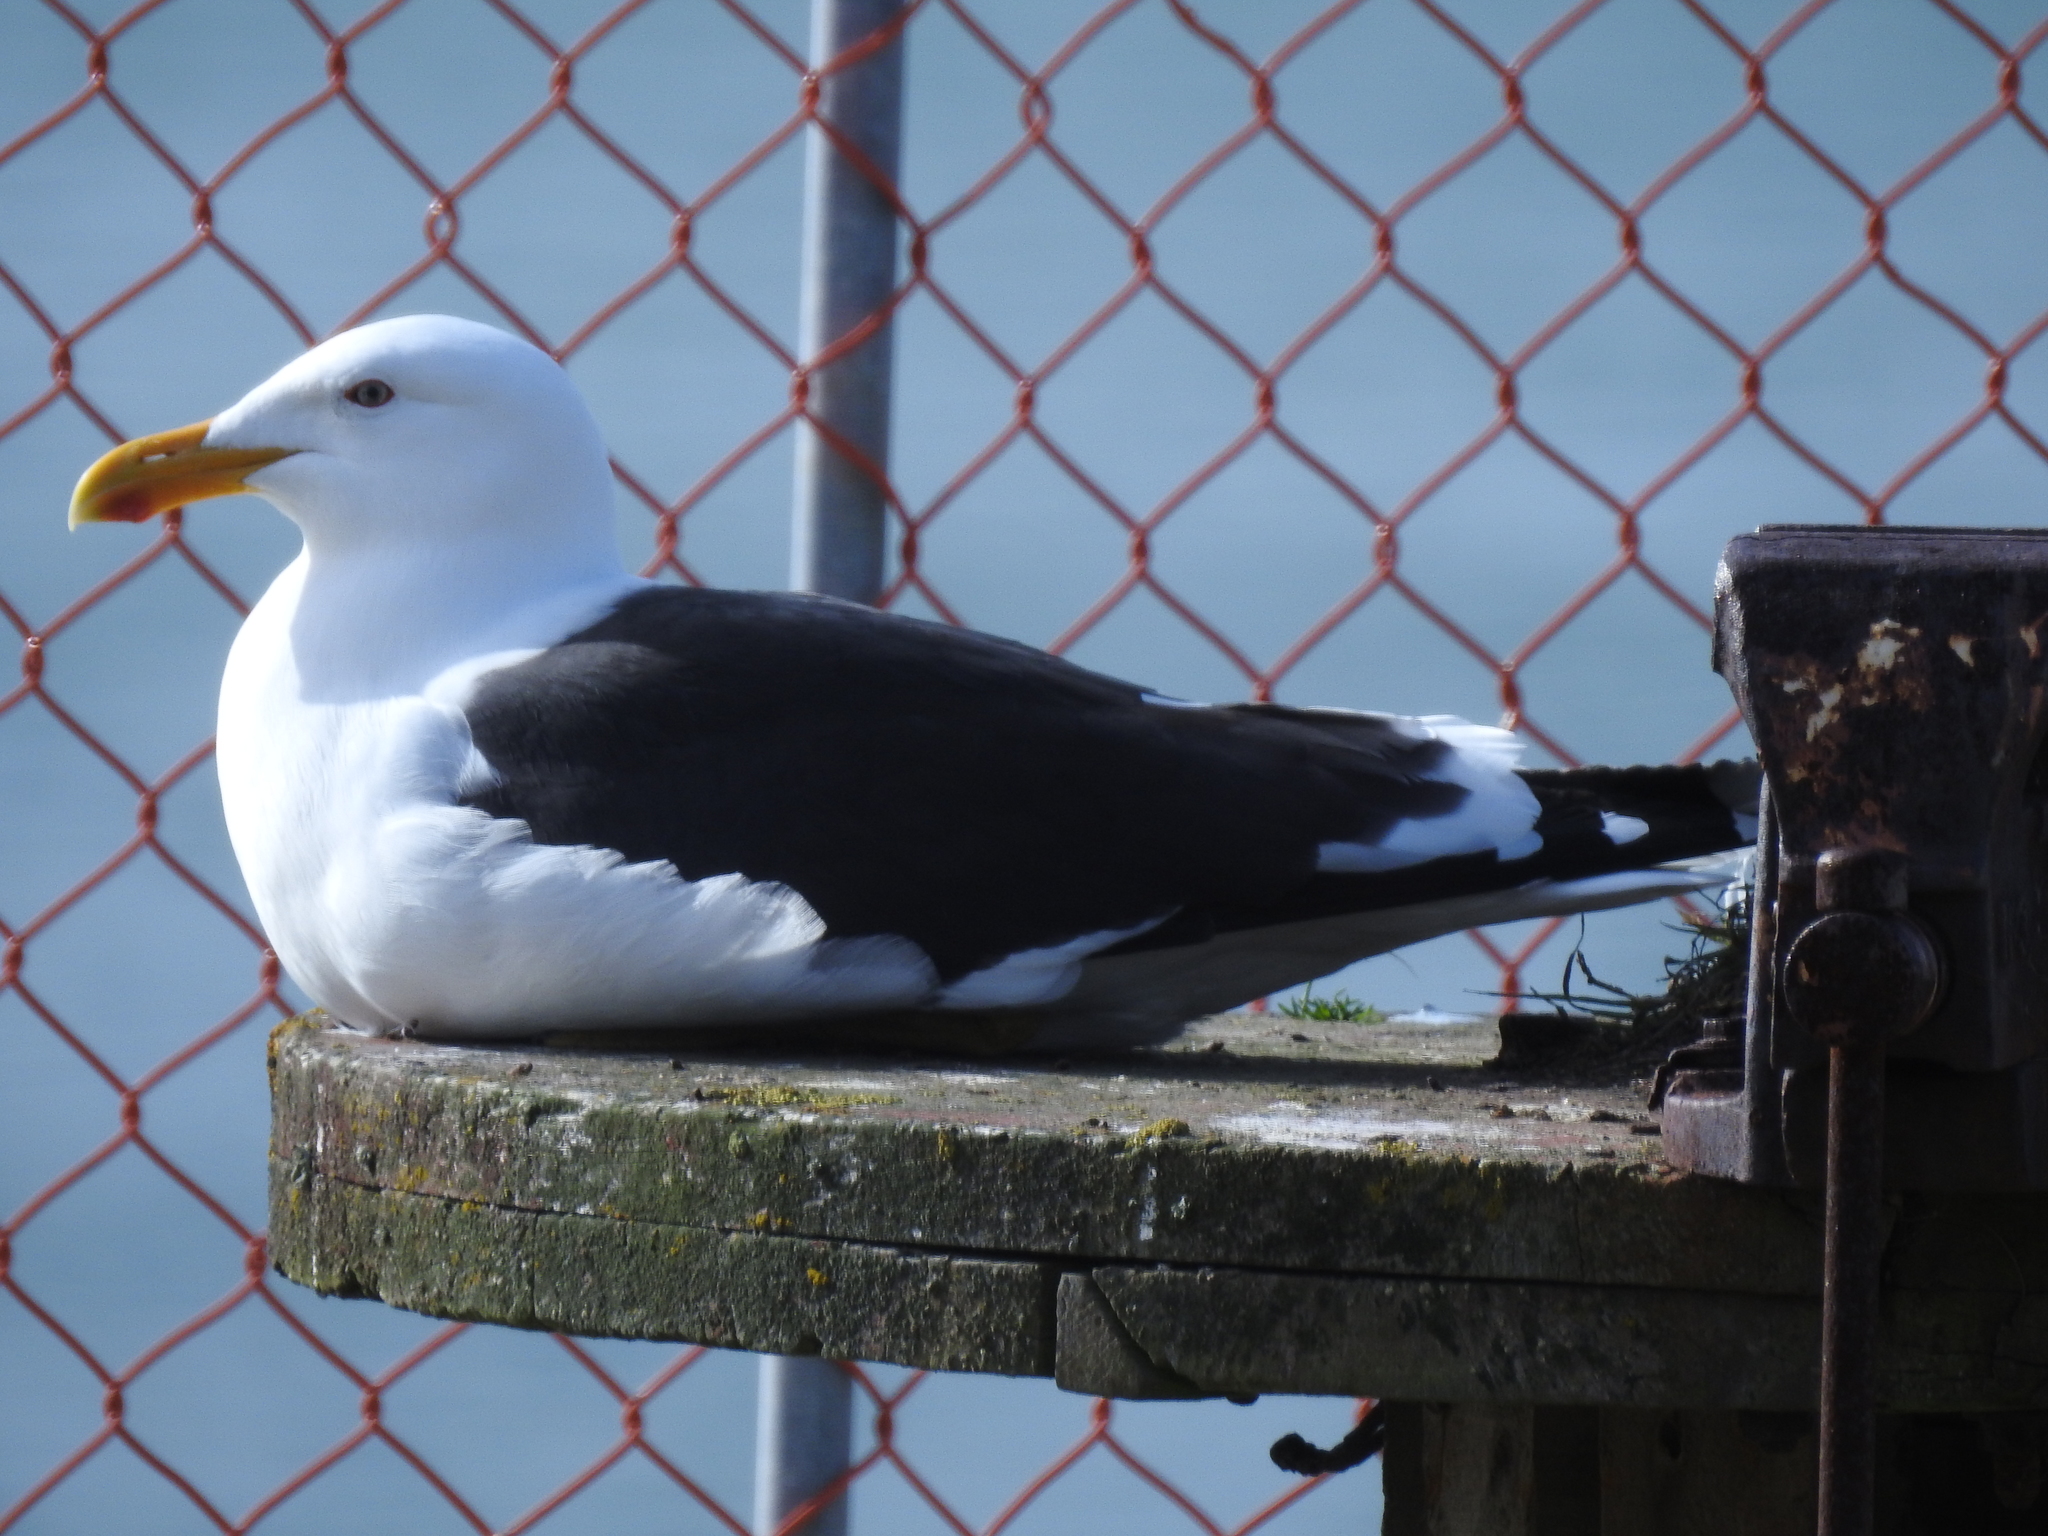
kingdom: Animalia
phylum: Chordata
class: Aves
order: Charadriiformes
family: Laridae
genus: Larus
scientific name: Larus dominicanus
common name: Kelp gull
